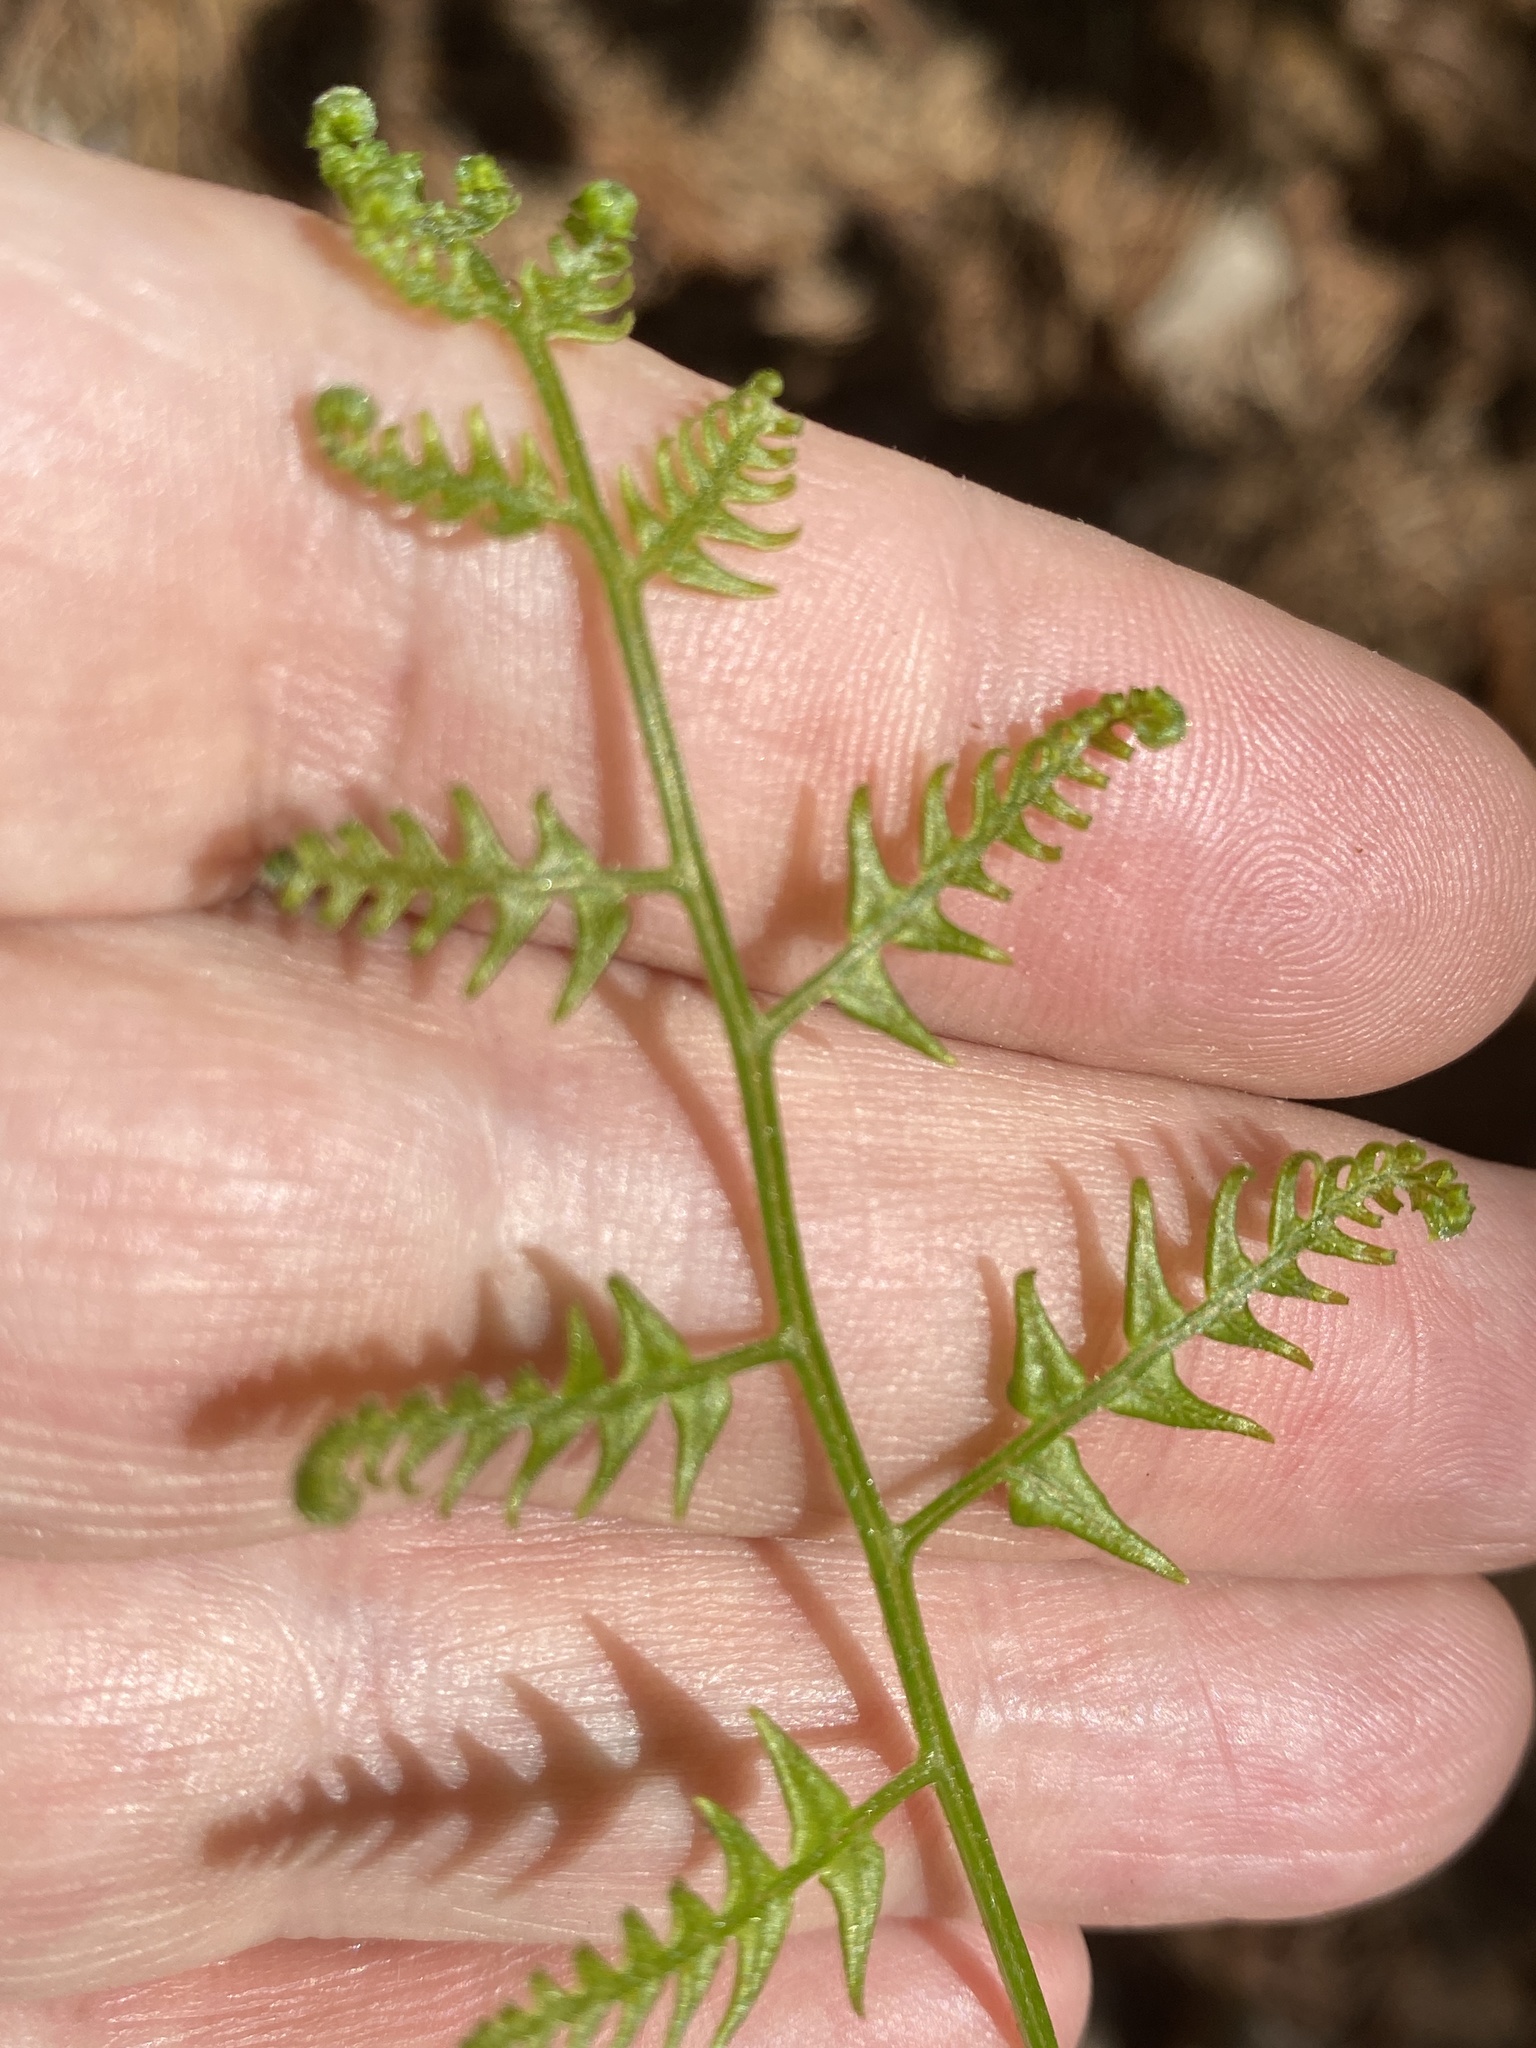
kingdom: Plantae
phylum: Tracheophyta
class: Polypodiopsida
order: Polypodiales
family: Dennstaedtiaceae
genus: Pteridium
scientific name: Pteridium aquilinum
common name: Bracken
